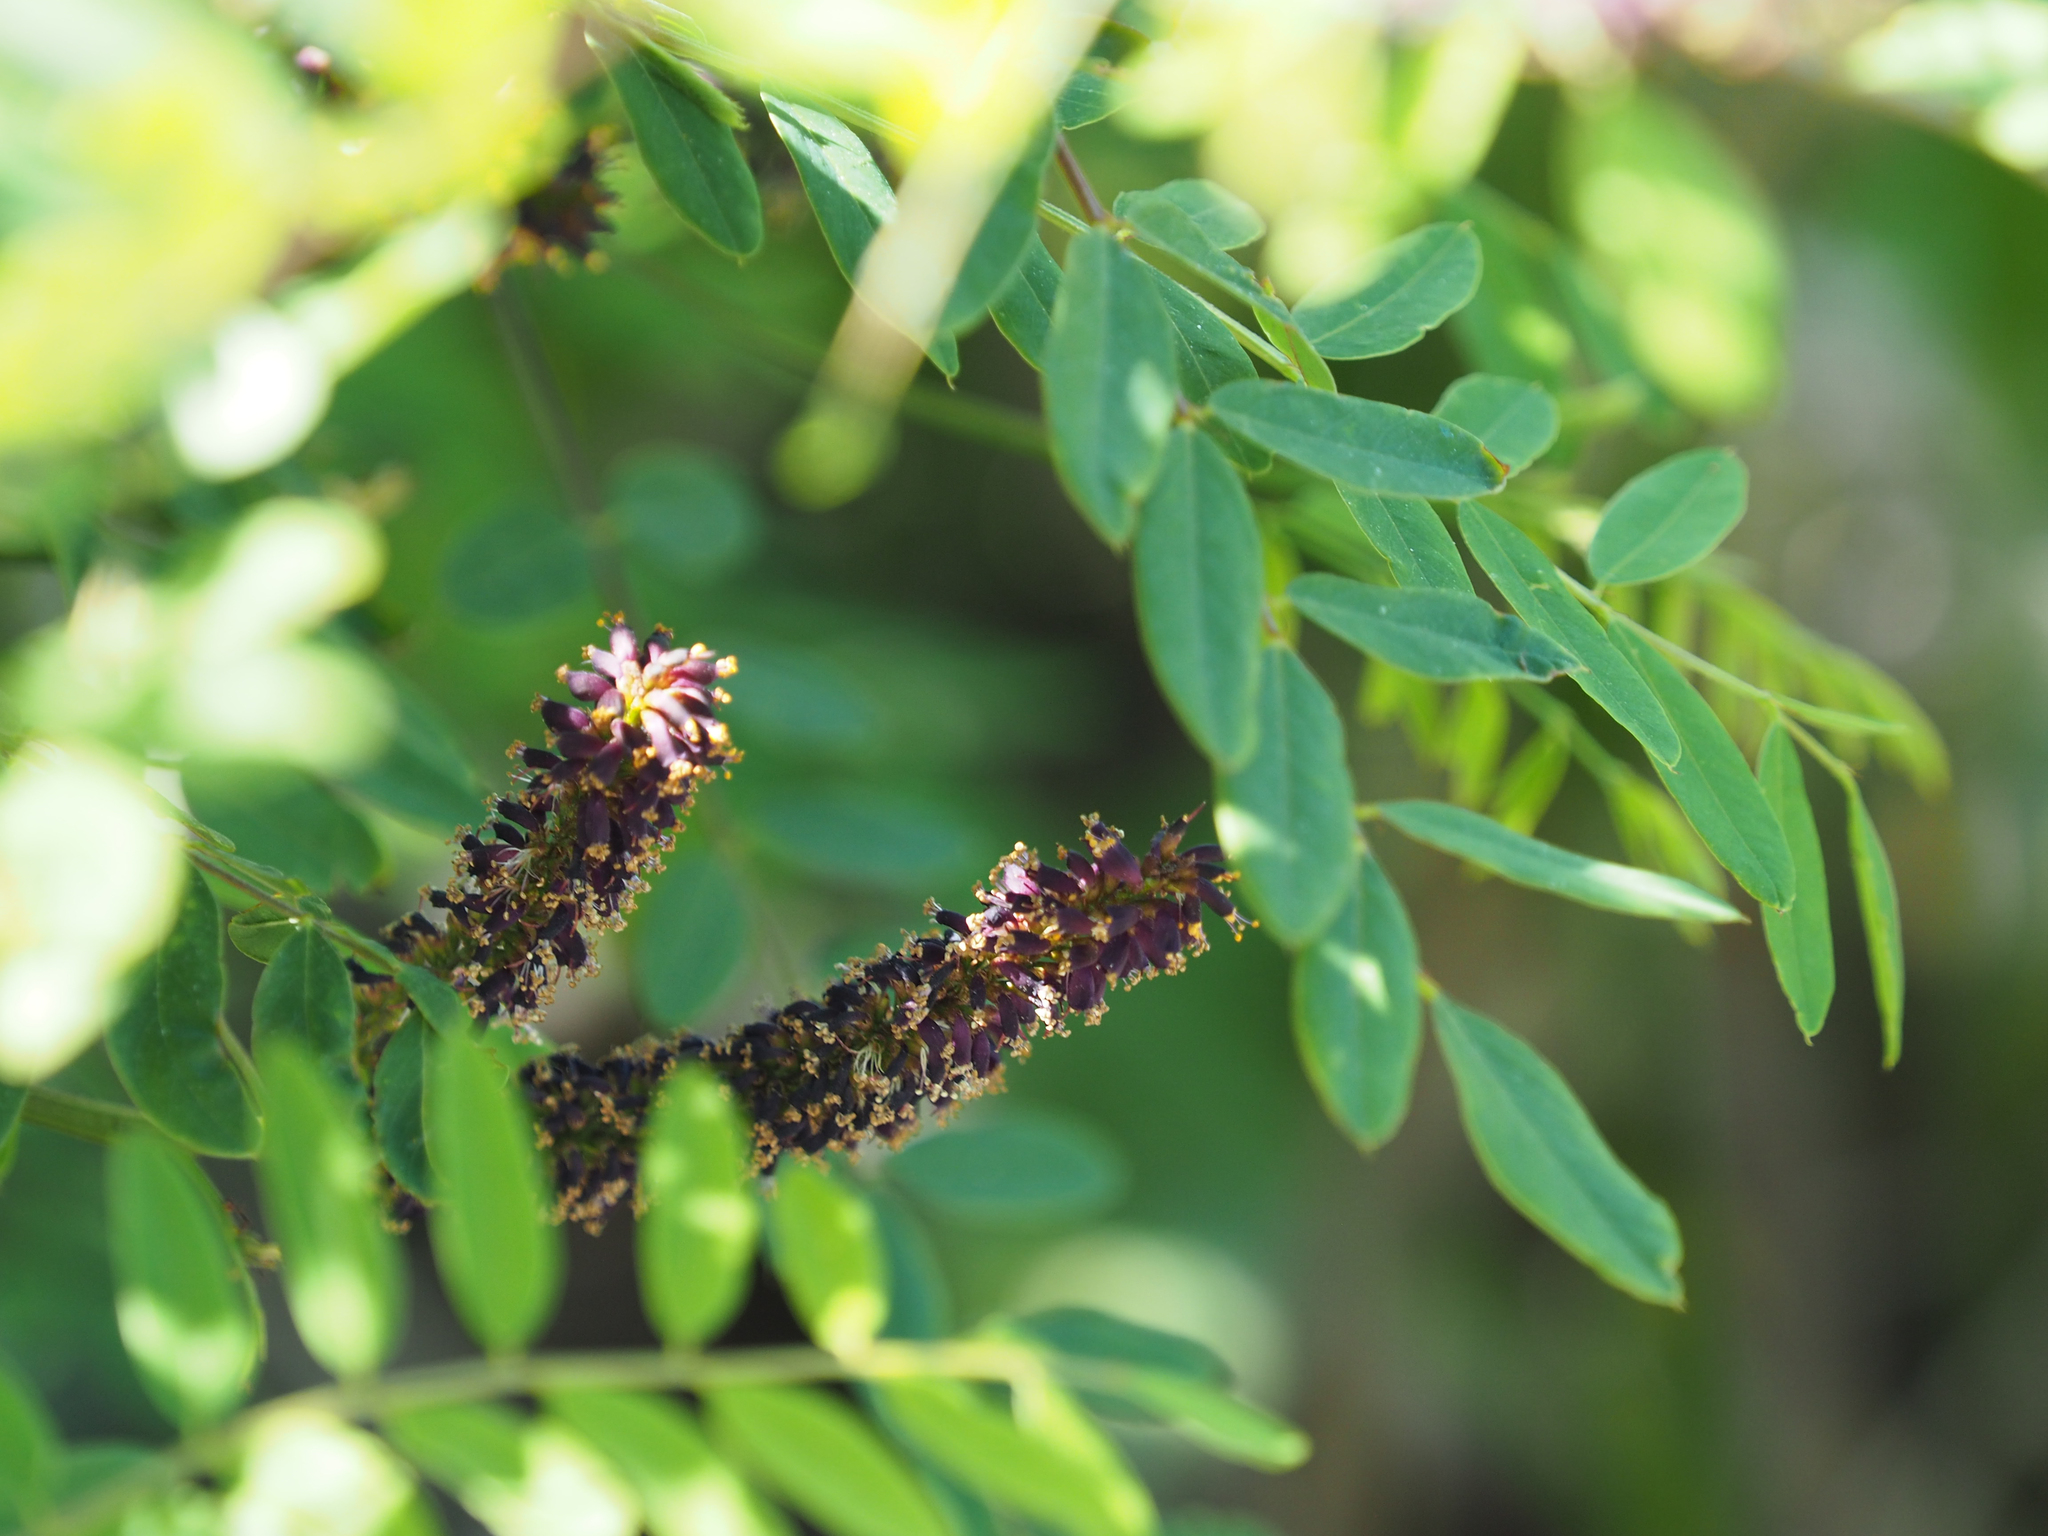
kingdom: Plantae
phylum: Tracheophyta
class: Magnoliopsida
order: Fabales
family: Fabaceae
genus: Amorpha
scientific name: Amorpha fruticosa
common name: False indigo
